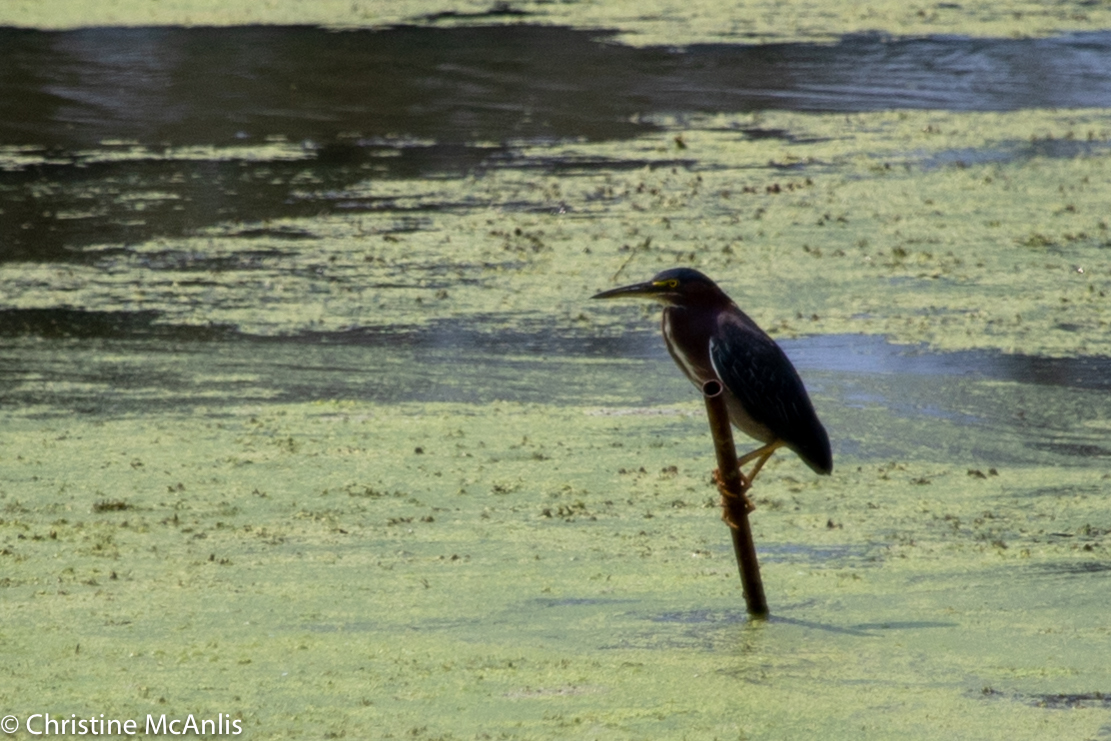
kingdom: Animalia
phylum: Chordata
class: Aves
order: Pelecaniformes
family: Ardeidae
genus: Butorides
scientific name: Butorides virescens
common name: Green heron
